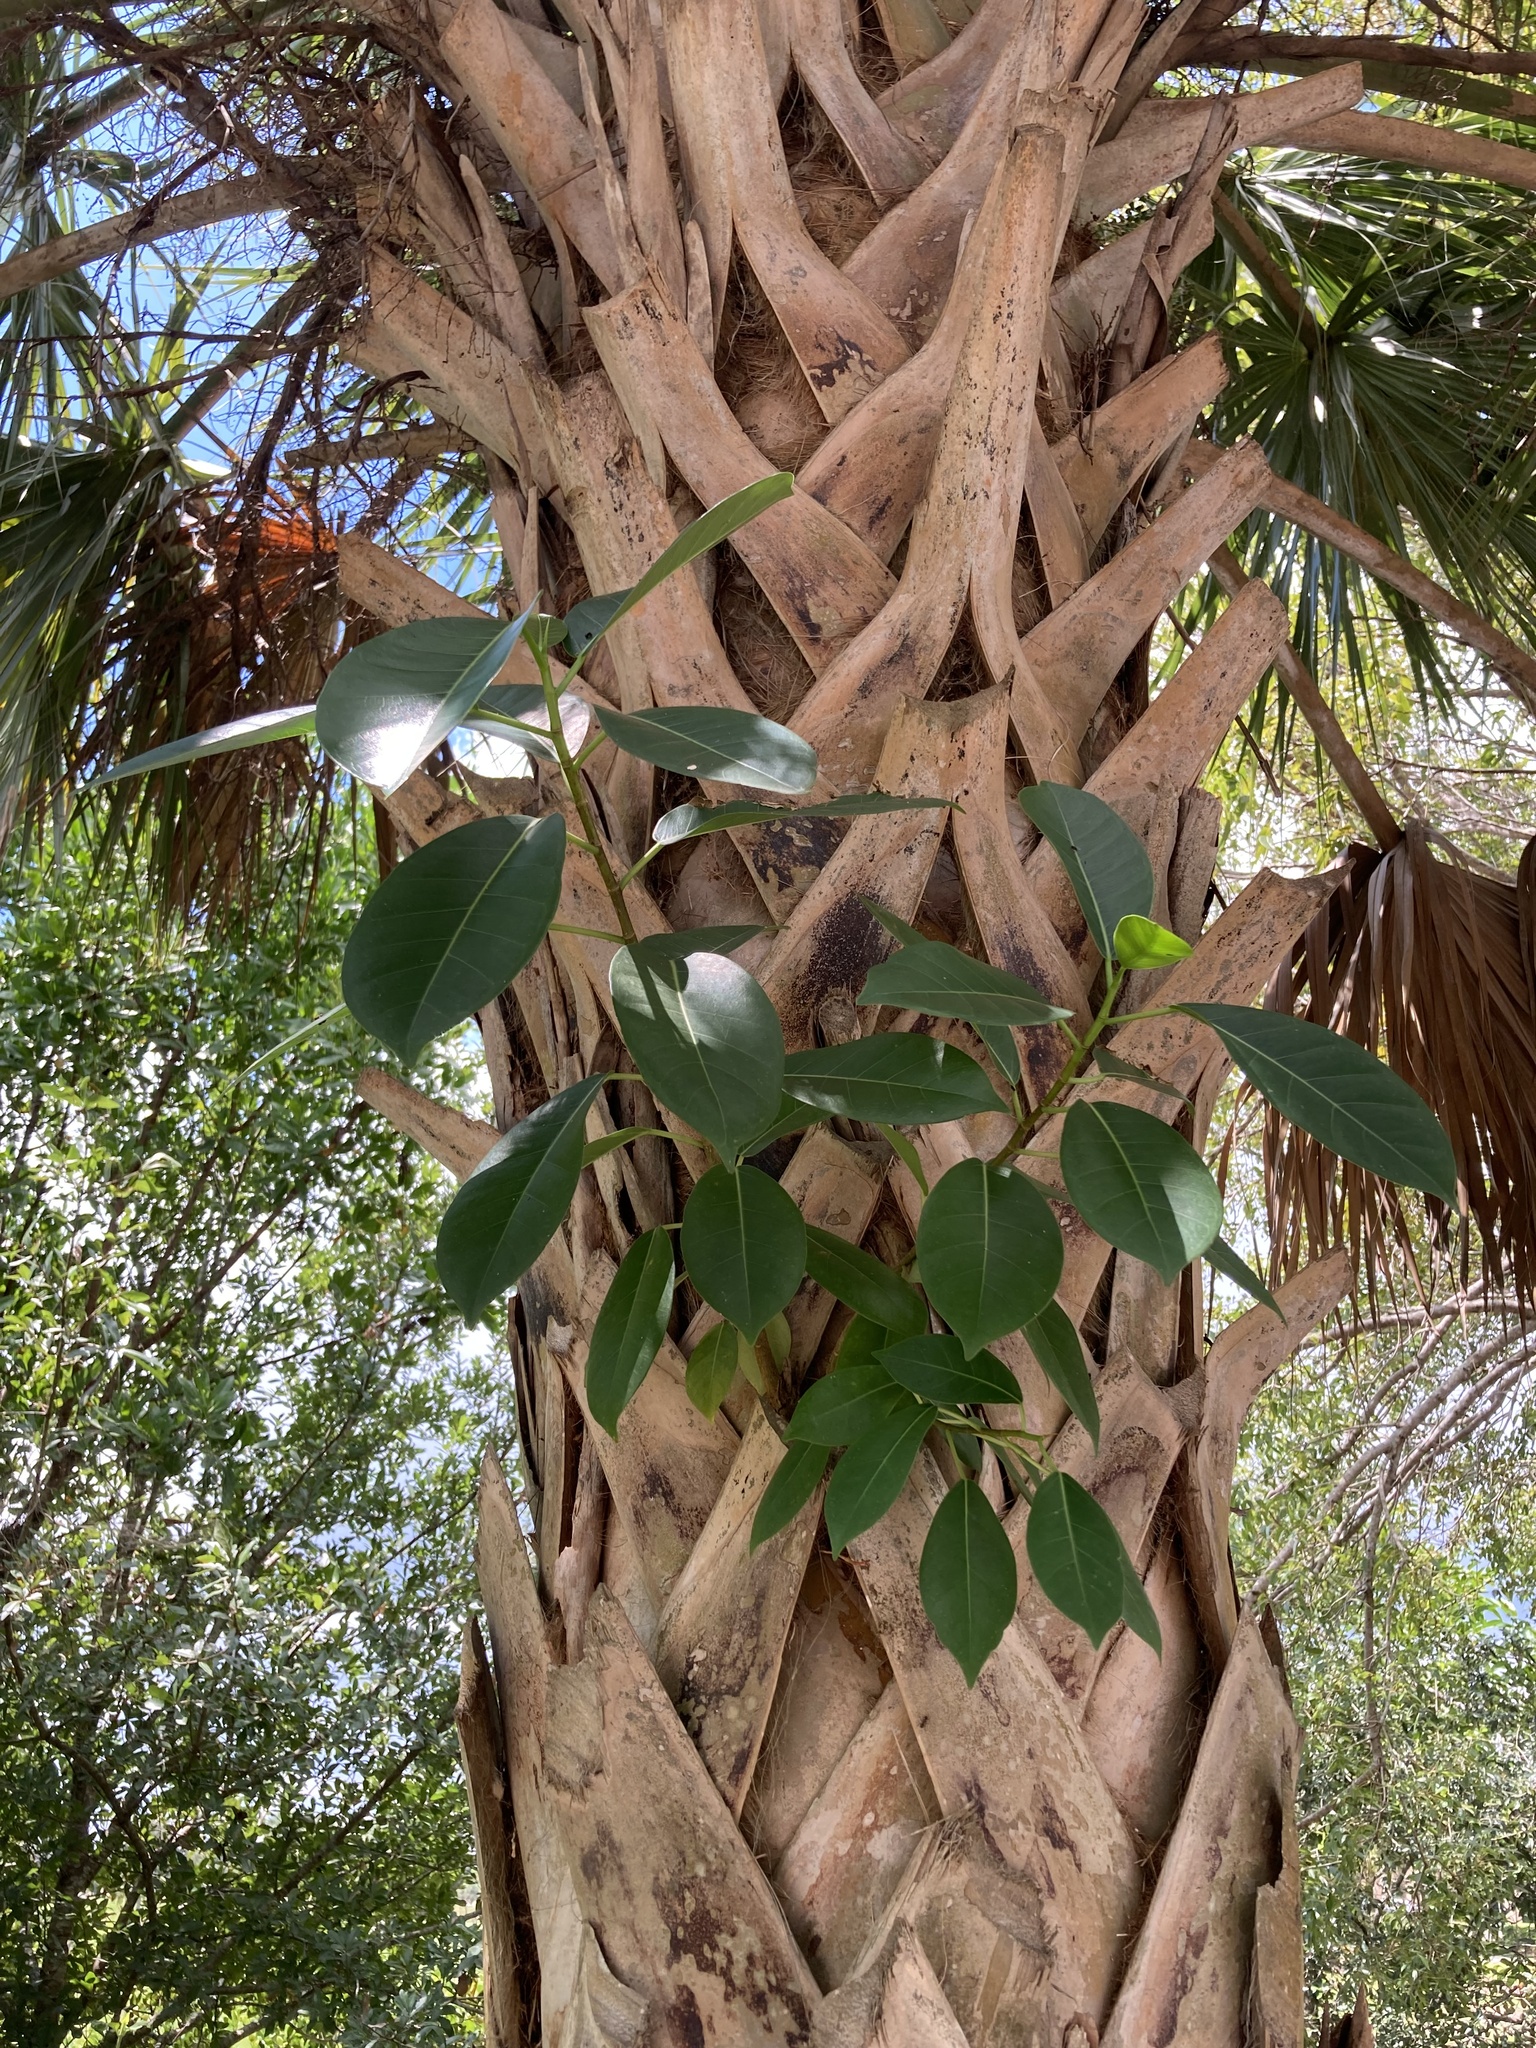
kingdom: Plantae
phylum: Tracheophyta
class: Magnoliopsida
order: Rosales
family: Moraceae
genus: Ficus
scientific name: Ficus aurea
